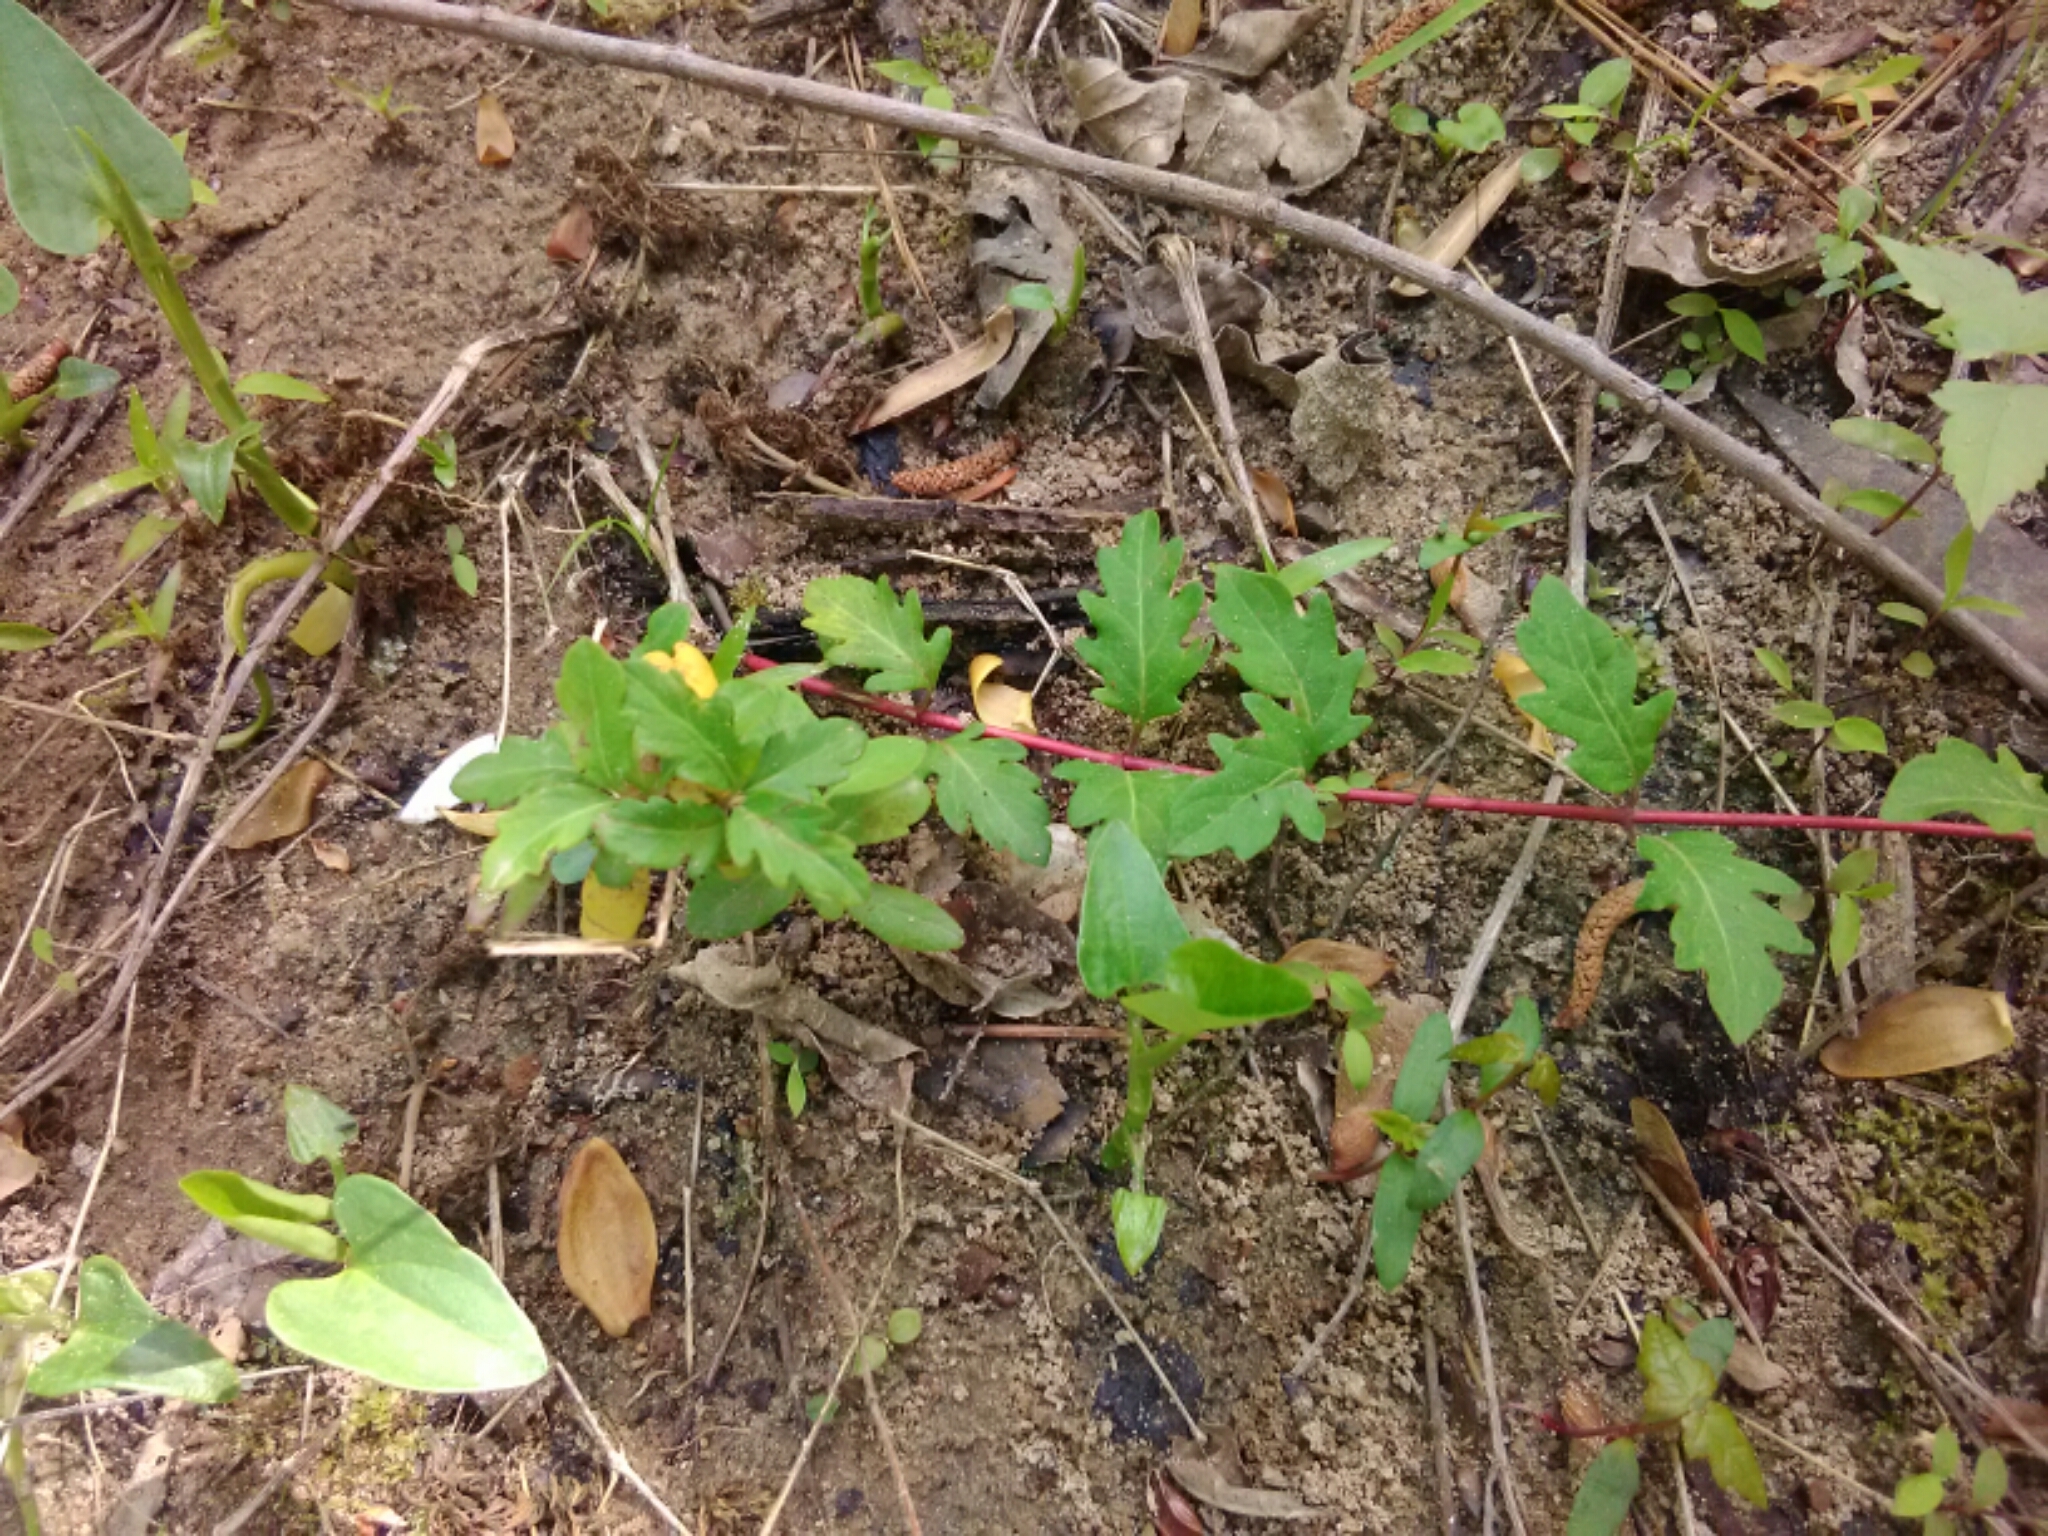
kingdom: Plantae
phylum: Tracheophyta
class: Magnoliopsida
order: Dipsacales
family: Caprifoliaceae
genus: Lonicera
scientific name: Lonicera japonica
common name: Japanese honeysuckle
